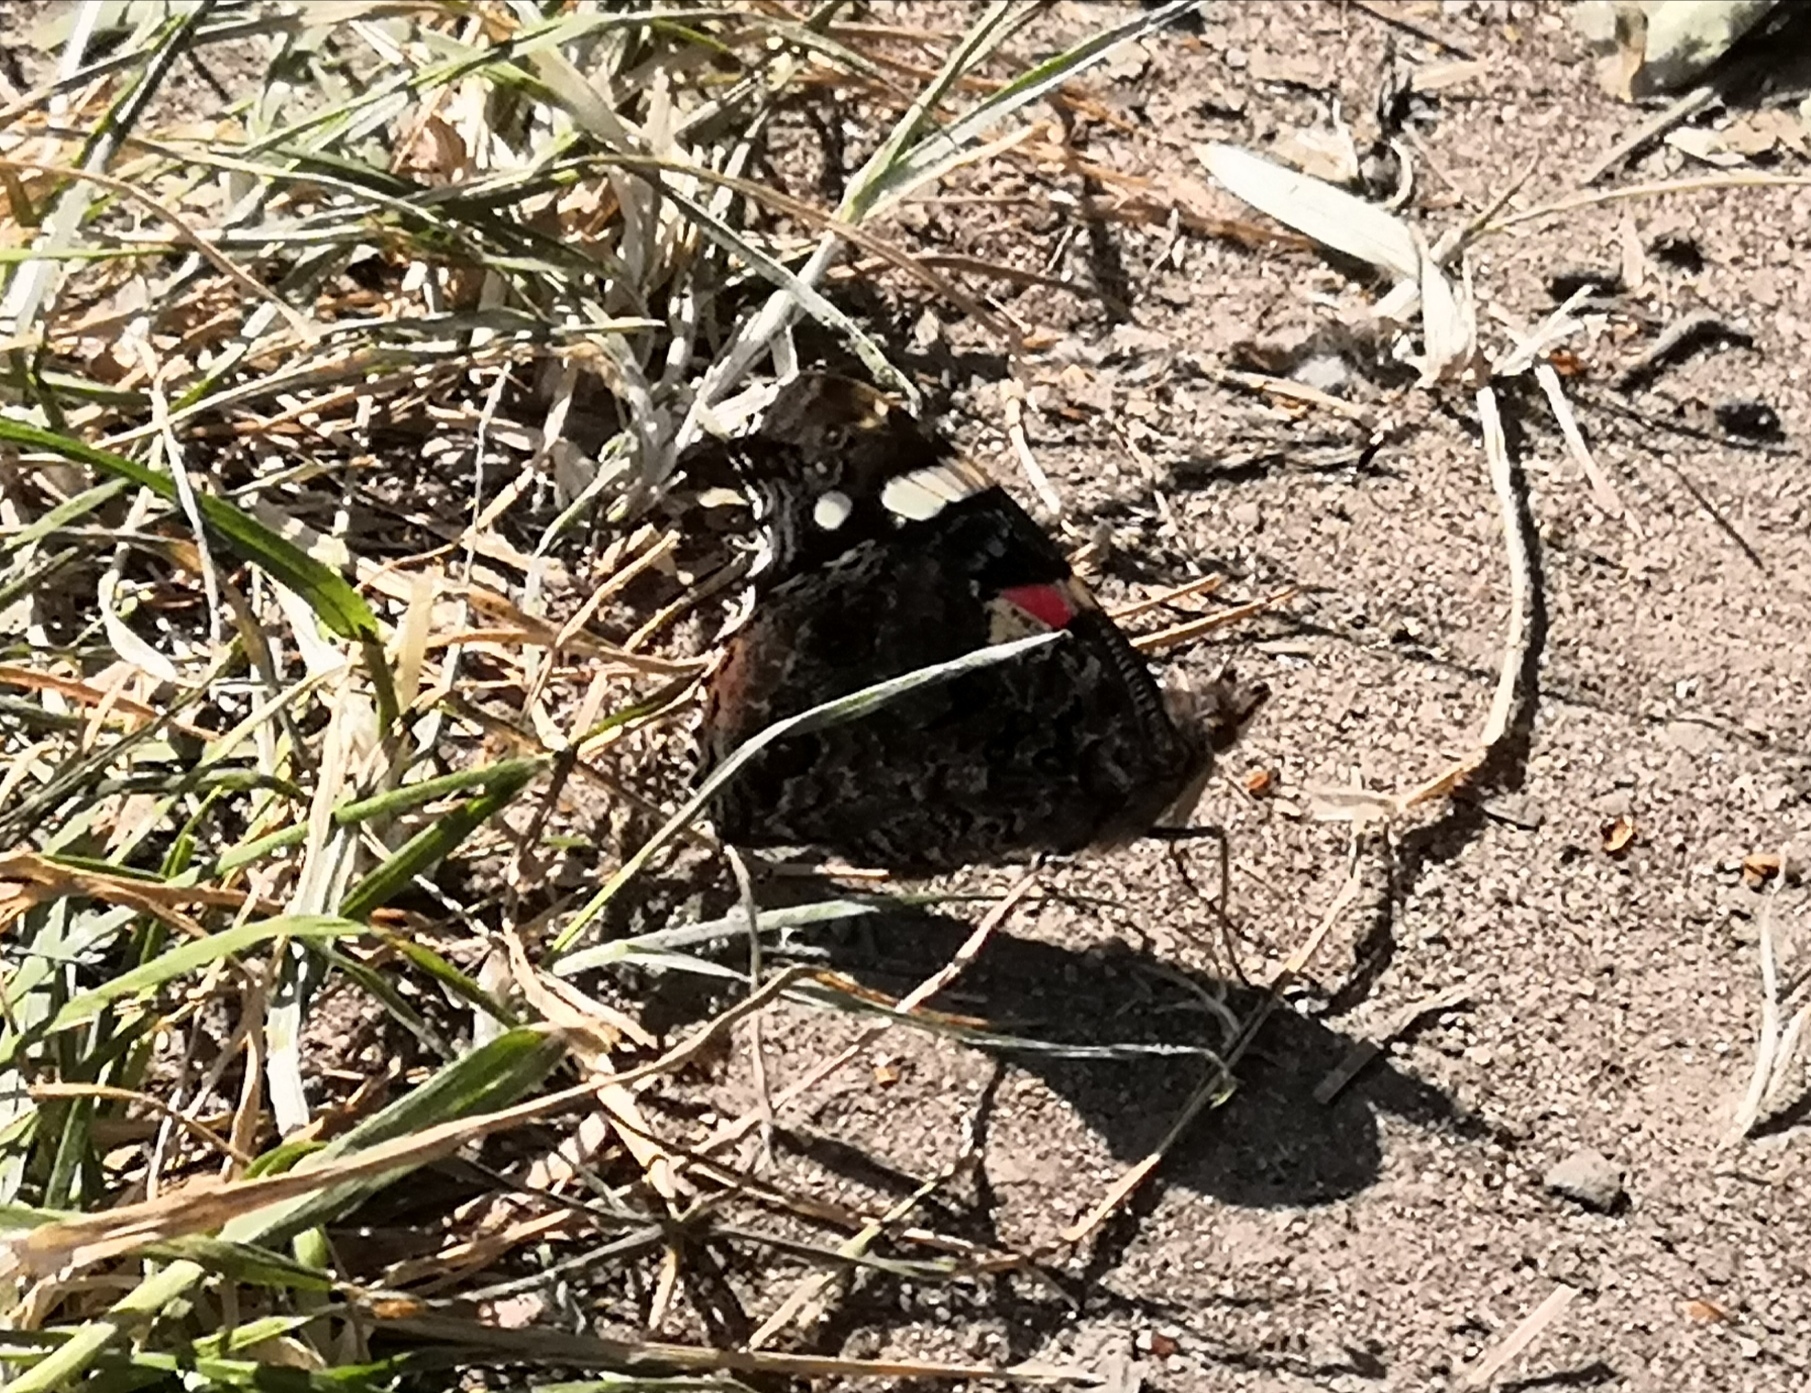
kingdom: Animalia
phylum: Arthropoda
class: Insecta
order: Lepidoptera
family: Nymphalidae
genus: Vanessa
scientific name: Vanessa atalanta
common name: Red admiral
